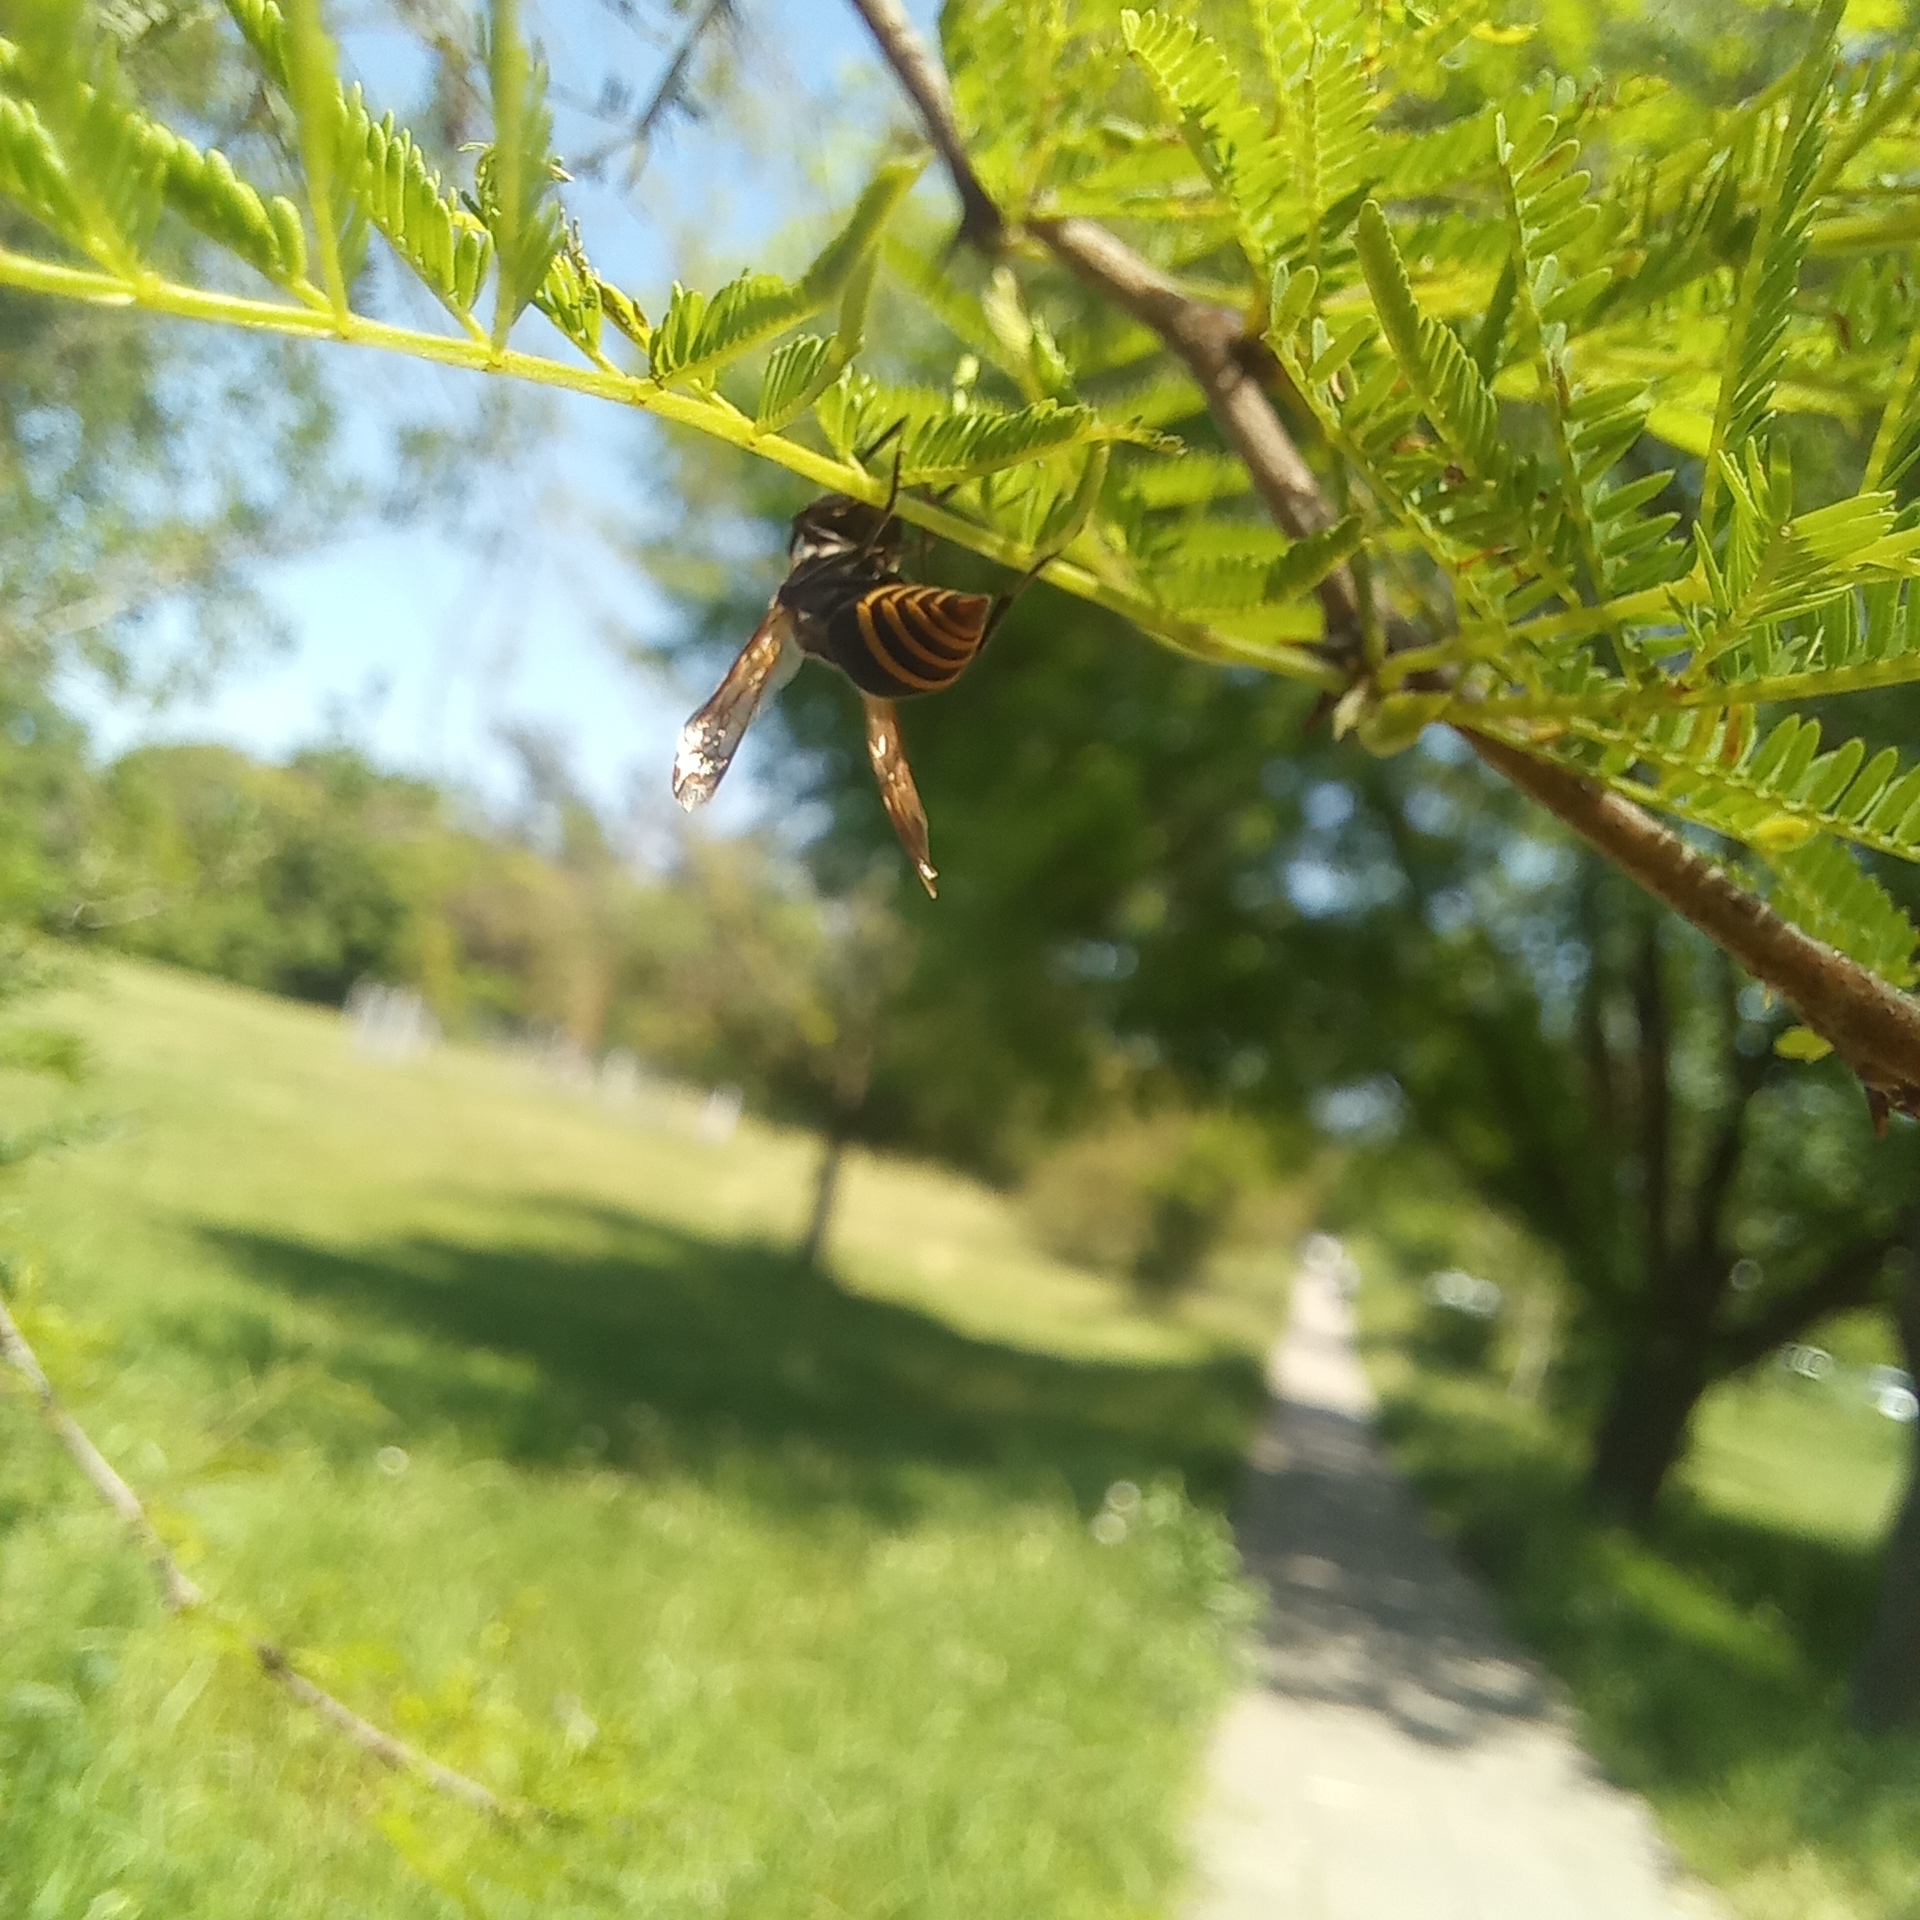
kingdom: Animalia
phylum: Arthropoda
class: Insecta
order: Hymenoptera
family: Vespidae
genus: Brachygastra
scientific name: Brachygastra lecheguana
